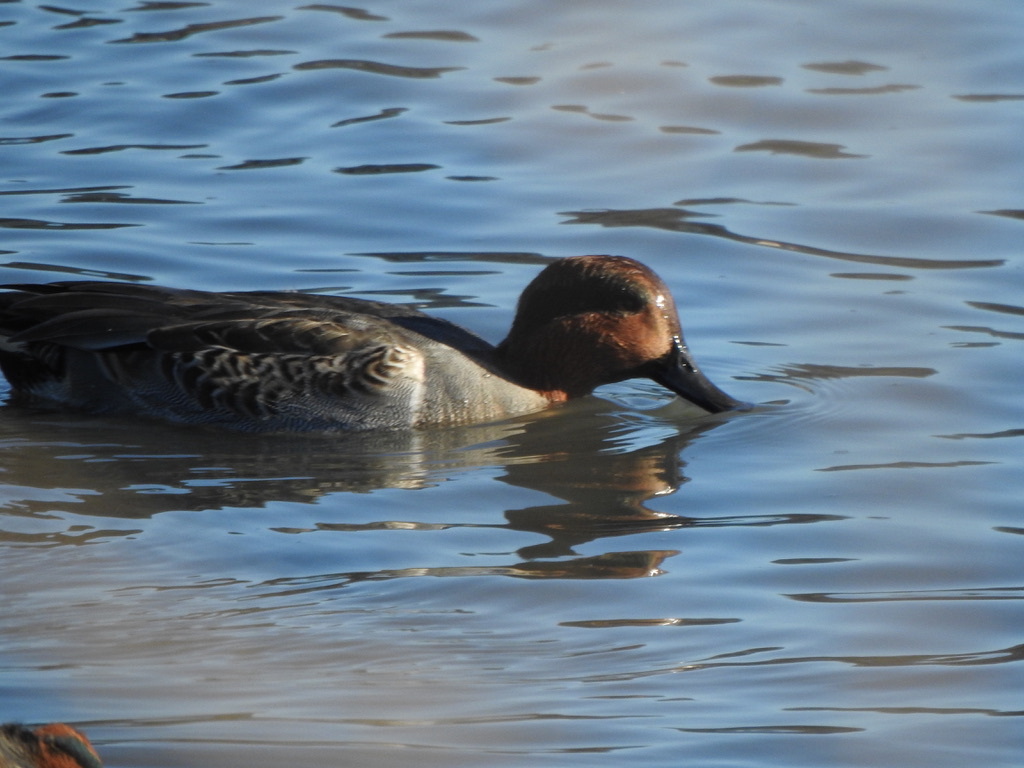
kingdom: Animalia
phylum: Chordata
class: Aves
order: Anseriformes
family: Anatidae
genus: Anas
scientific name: Anas crecca
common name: Eurasian teal
